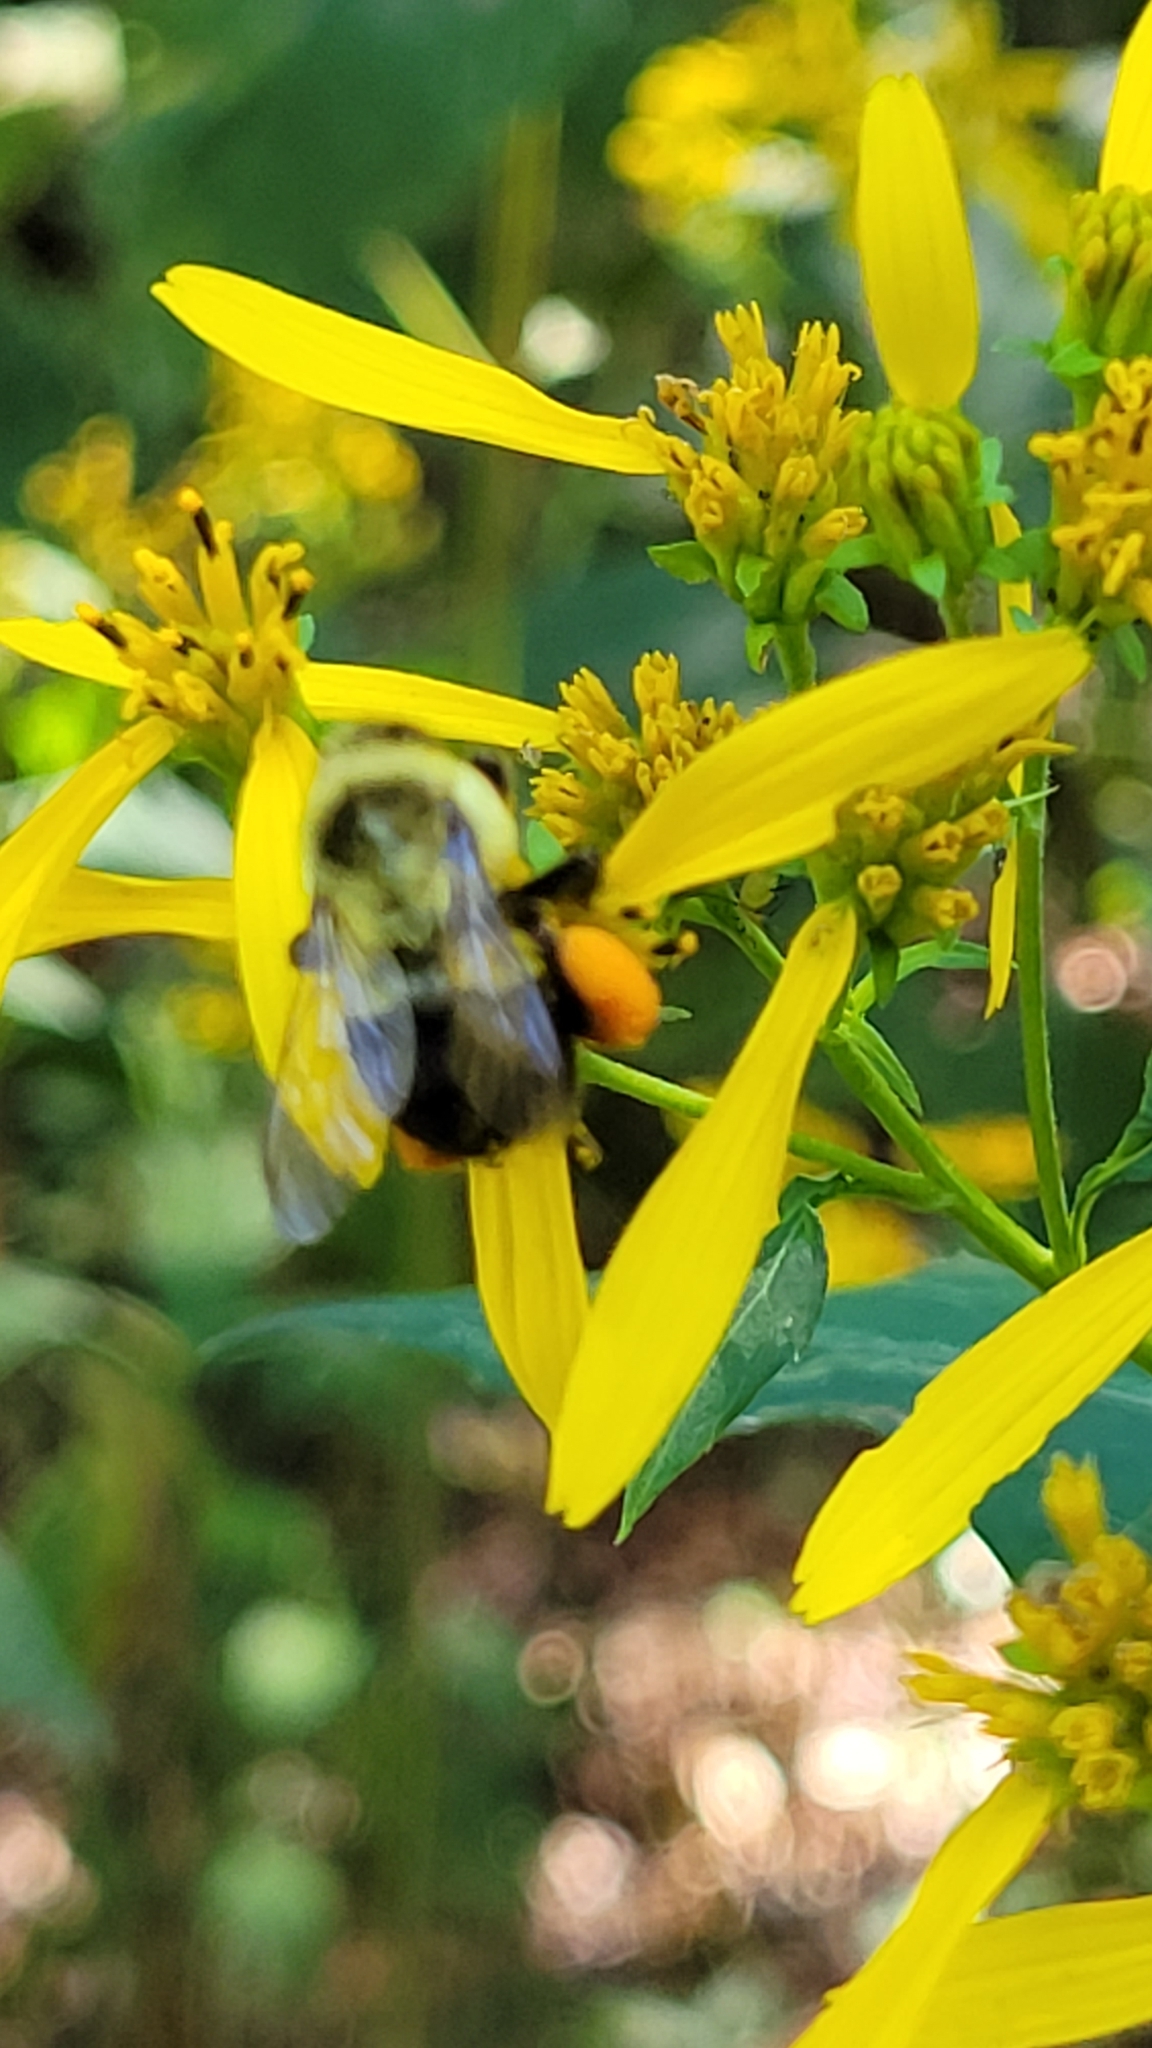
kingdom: Animalia
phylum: Arthropoda
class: Insecta
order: Hymenoptera
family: Apidae
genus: Bombus
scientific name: Bombus impatiens
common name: Common eastern bumble bee
